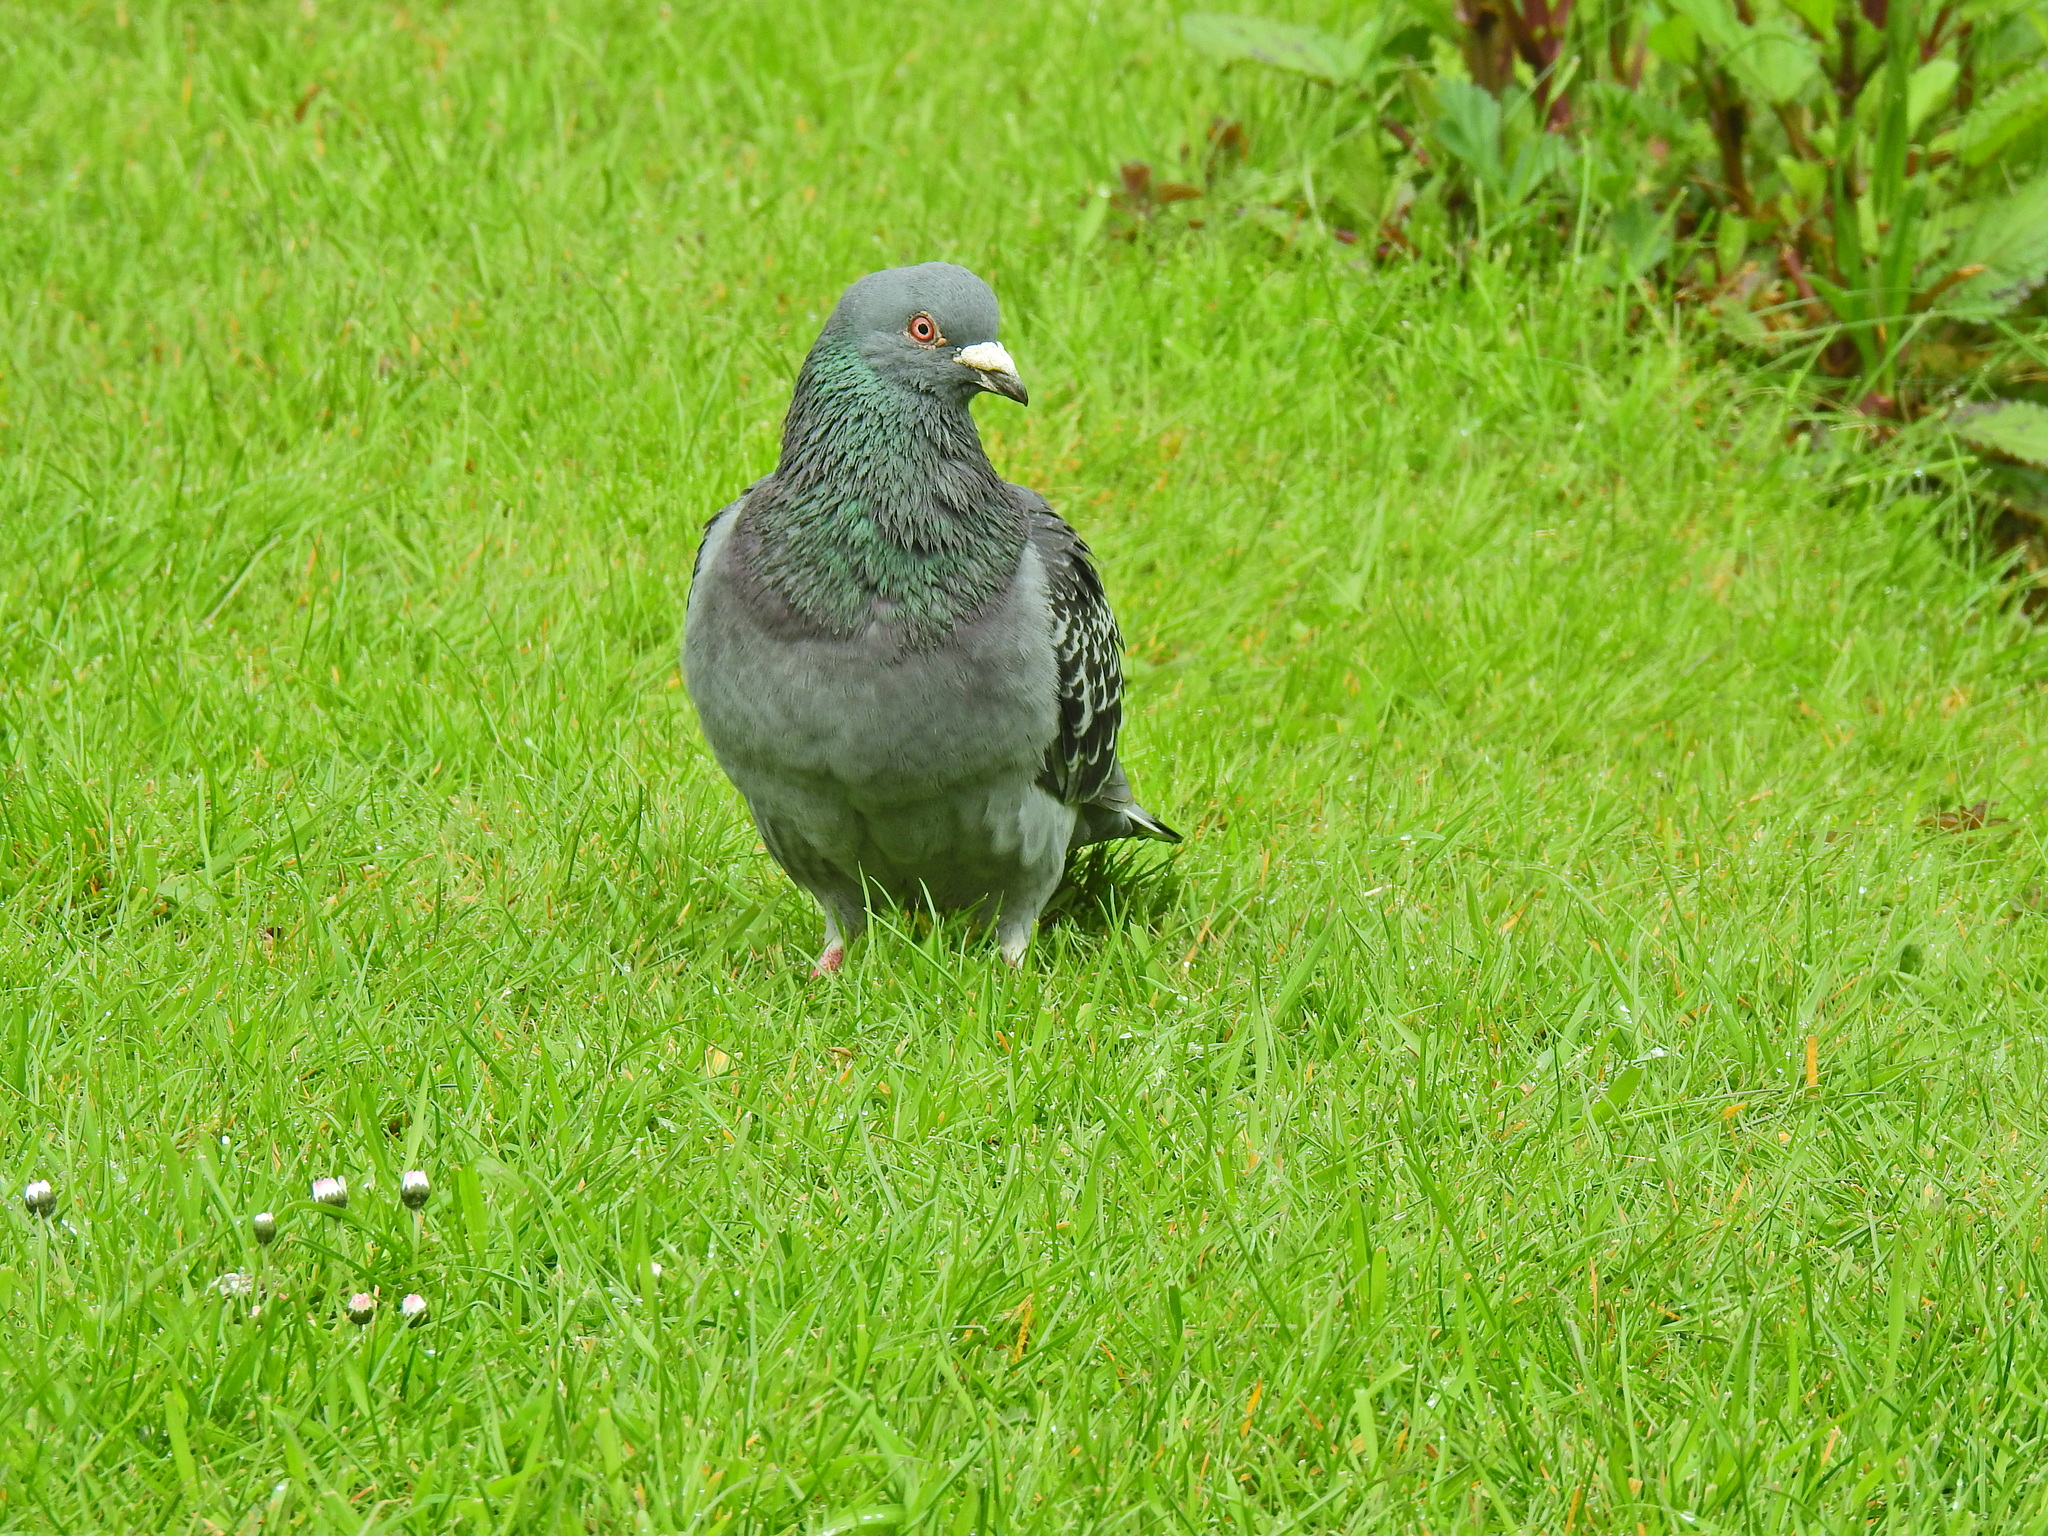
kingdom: Animalia
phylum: Chordata
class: Aves
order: Columbiformes
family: Columbidae
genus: Columba
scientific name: Columba livia
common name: Rock pigeon
